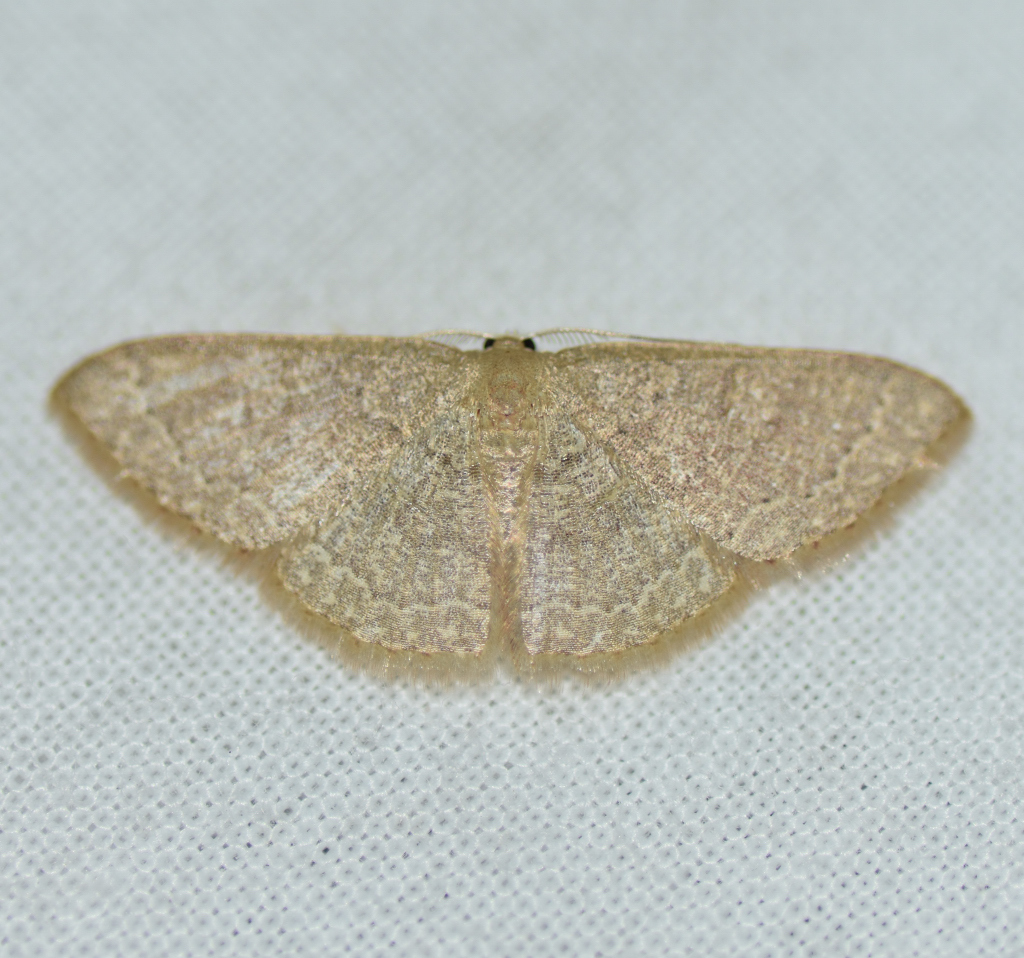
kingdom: Animalia
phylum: Arthropoda
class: Insecta
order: Lepidoptera
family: Geometridae
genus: Pleuroprucha
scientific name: Pleuroprucha insulsaria
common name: Common tan wave
